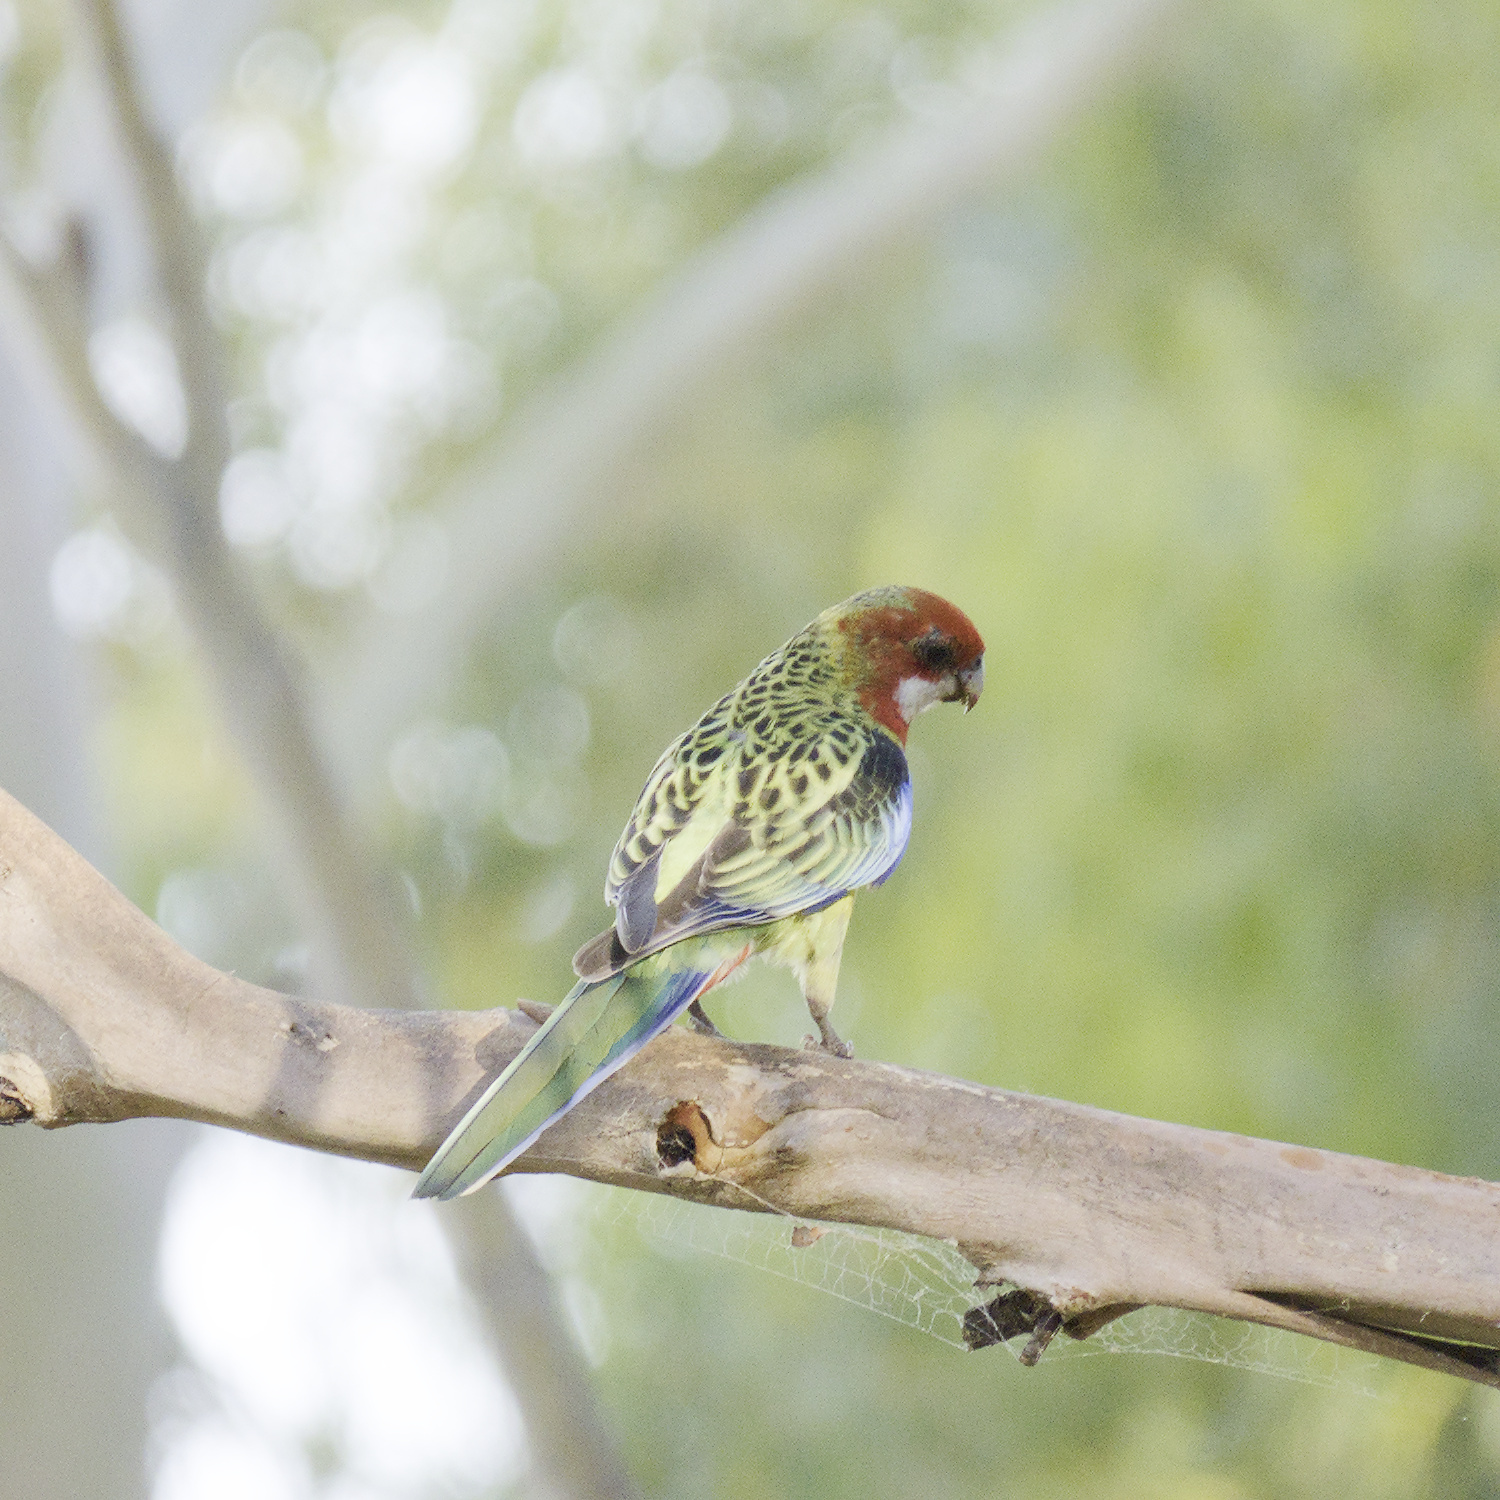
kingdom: Animalia
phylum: Chordata
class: Aves
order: Psittaciformes
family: Psittacidae
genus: Platycercus
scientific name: Platycercus eximius
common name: Eastern rosella
